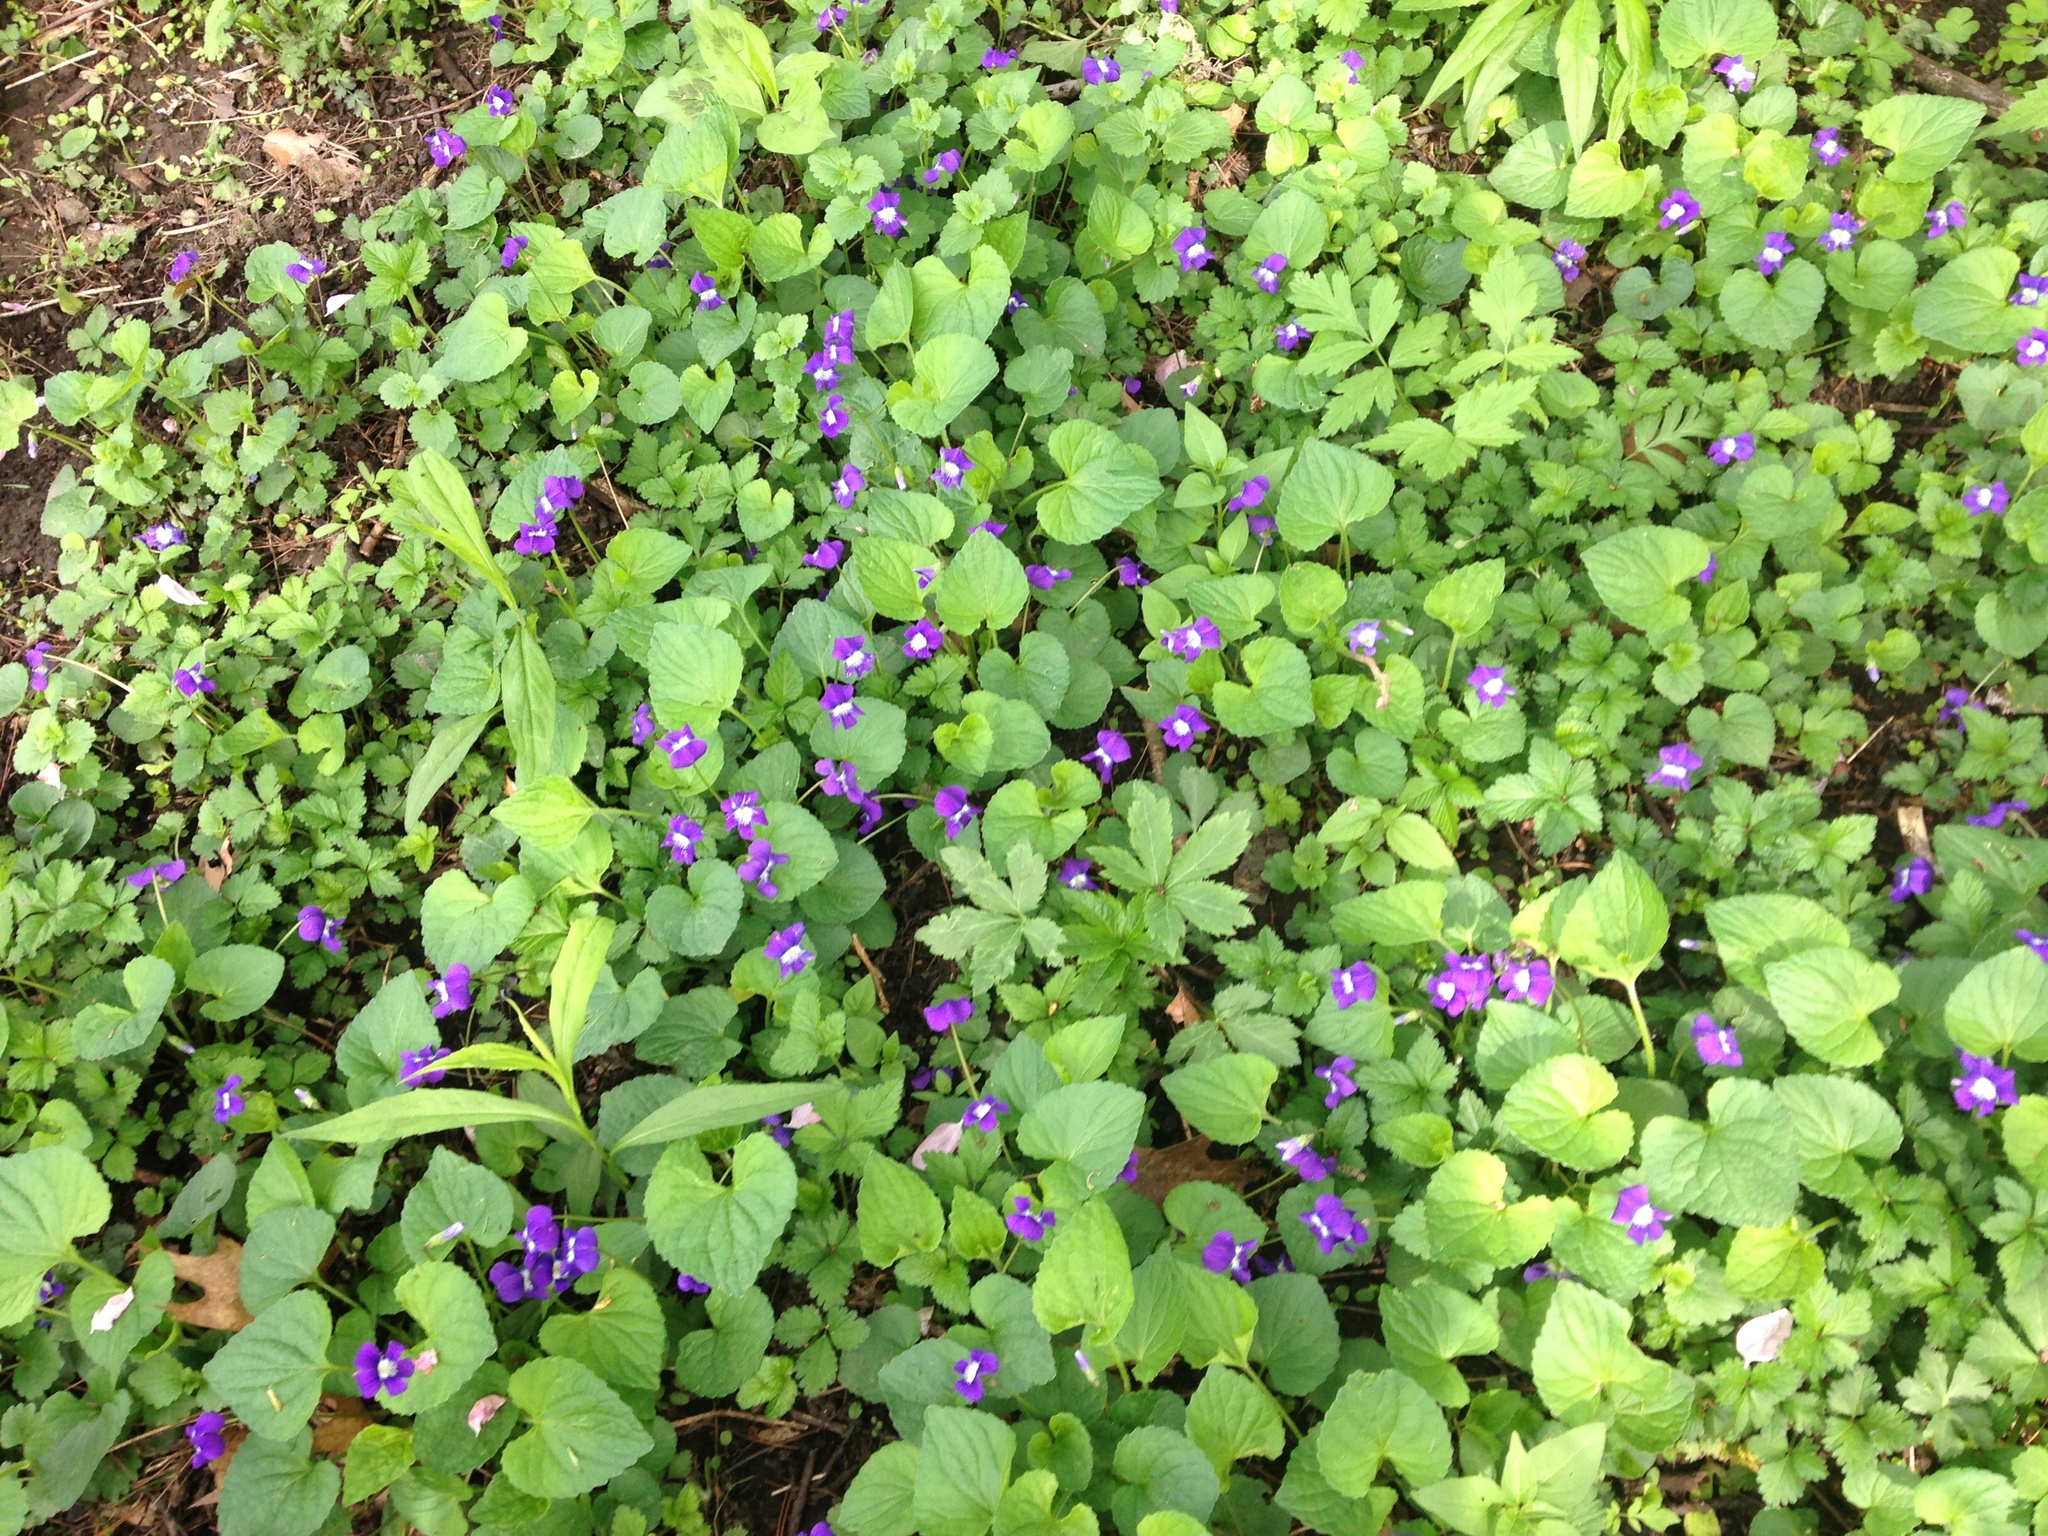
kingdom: Plantae
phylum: Tracheophyta
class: Magnoliopsida
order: Malpighiales
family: Violaceae
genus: Viola
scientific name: Viola sororia
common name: Dooryard violet
